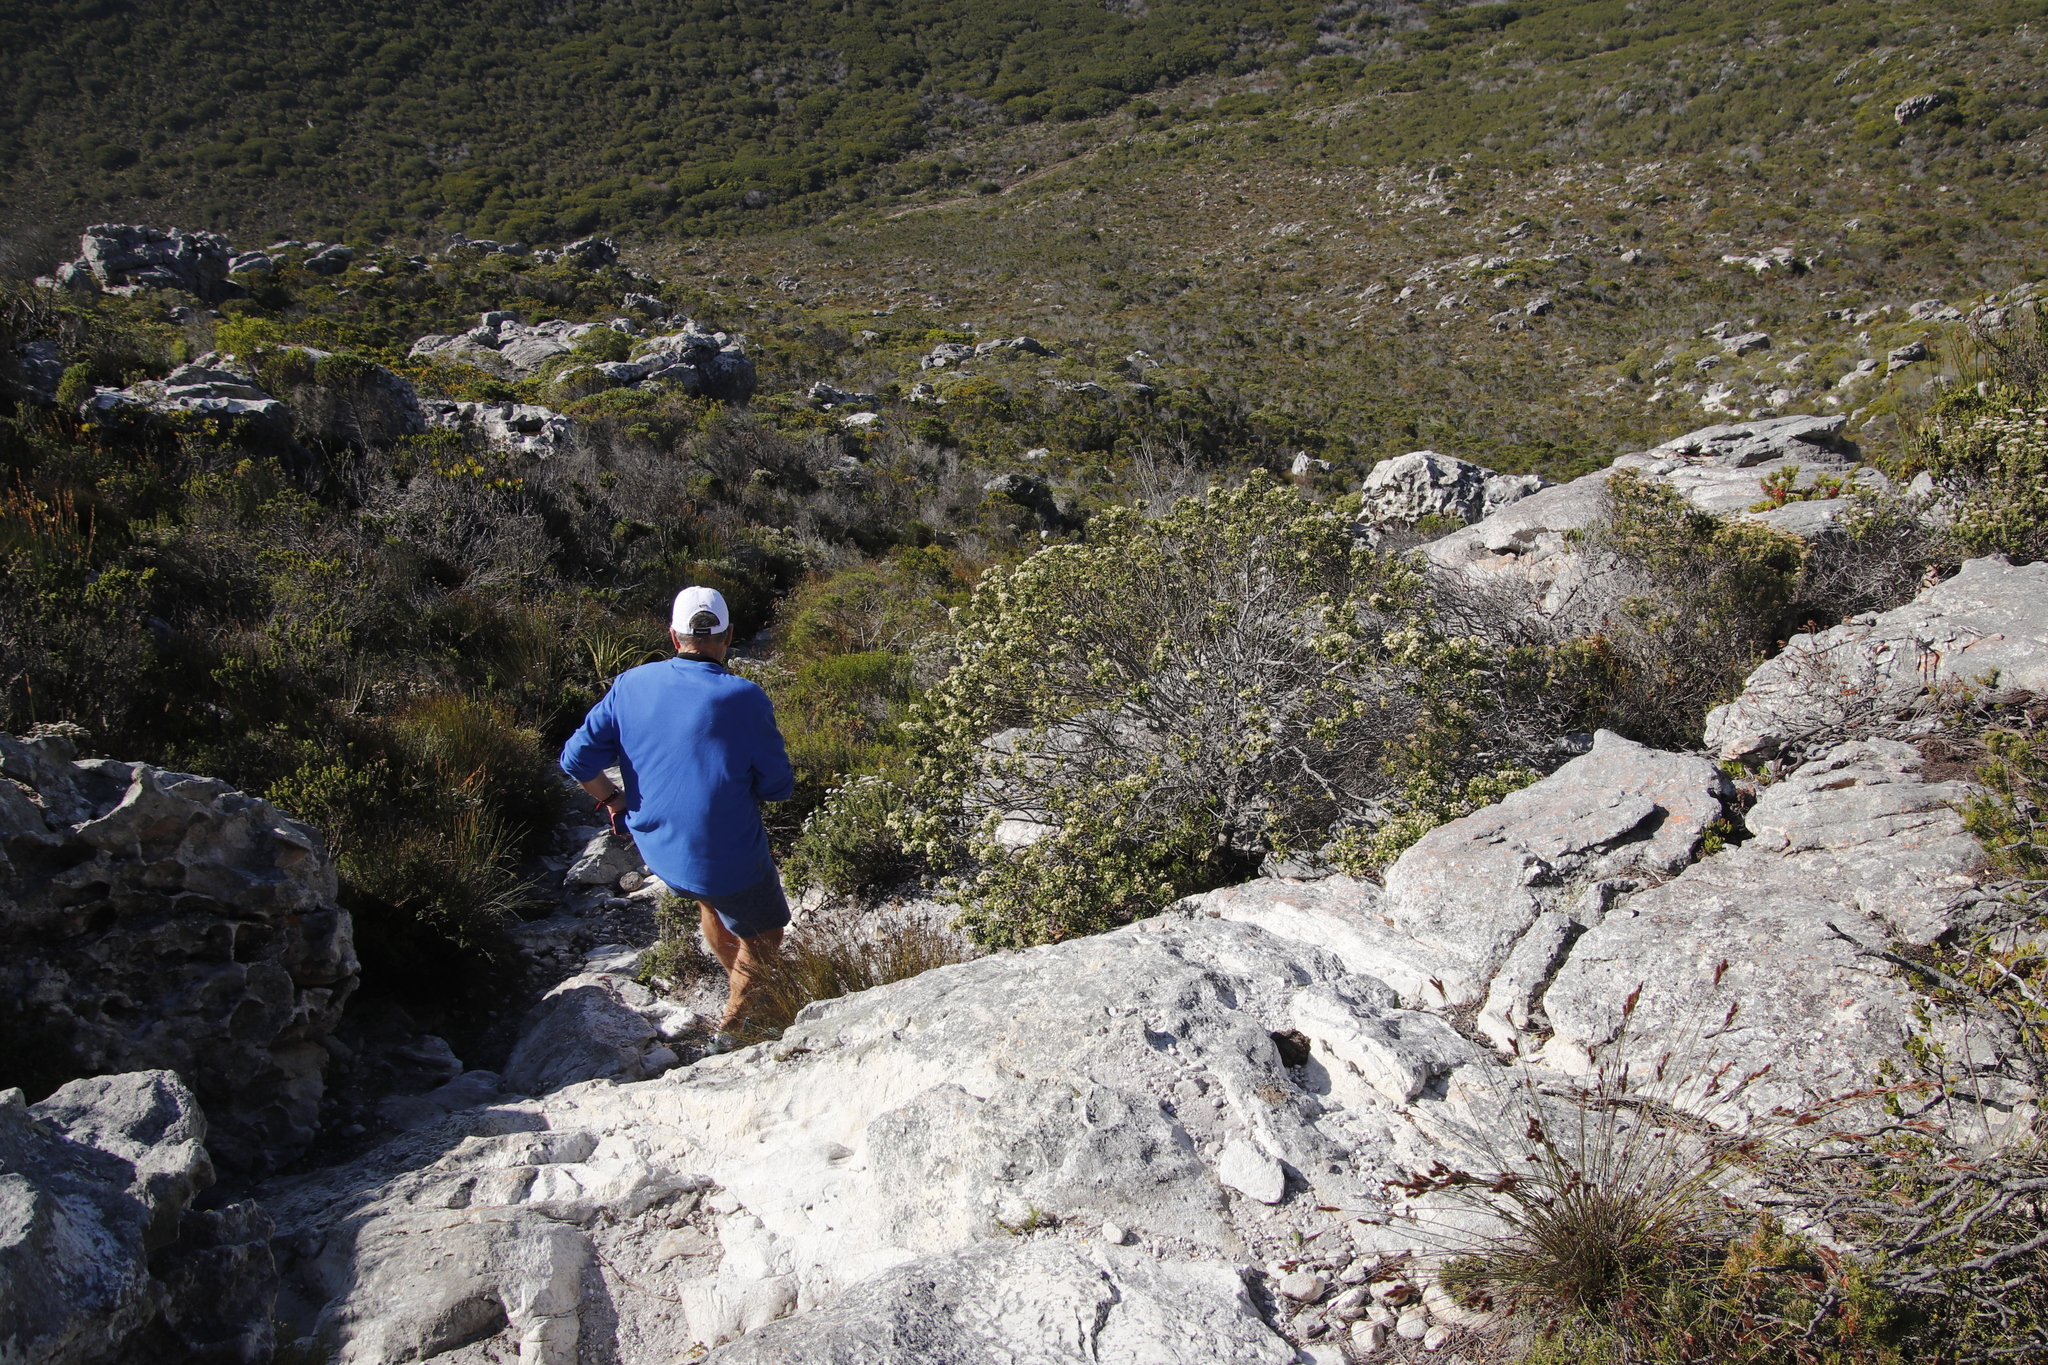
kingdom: Plantae
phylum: Tracheophyta
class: Magnoliopsida
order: Rosales
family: Rhamnaceae
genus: Phylica
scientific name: Phylica buxifolia
